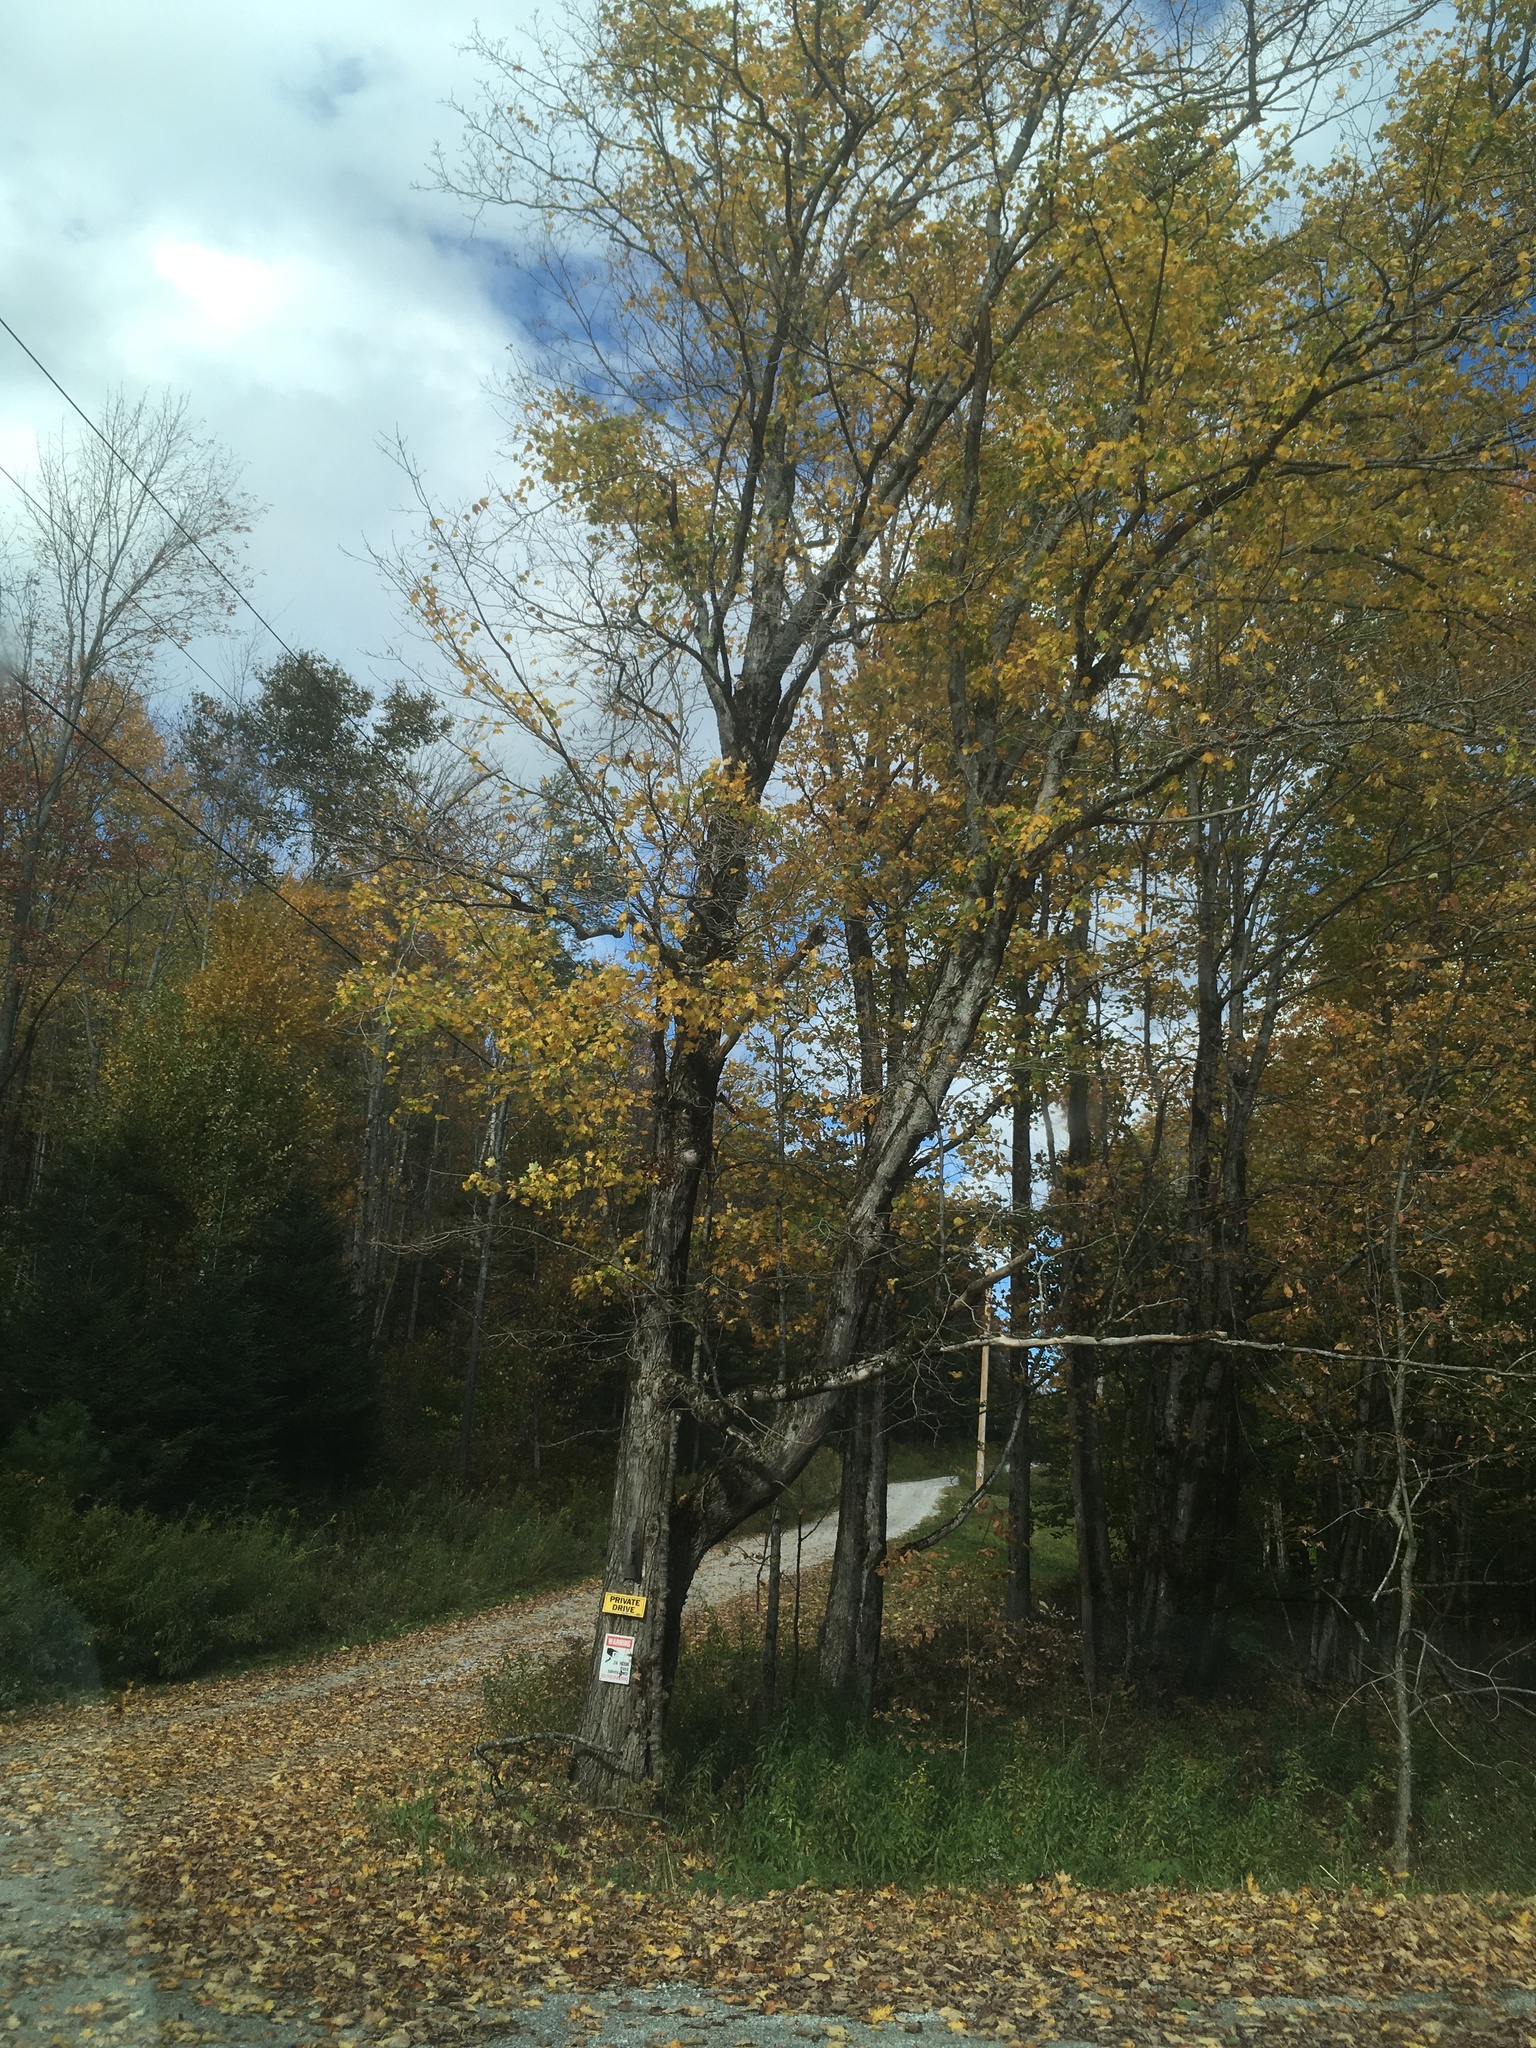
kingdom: Plantae
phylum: Tracheophyta
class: Magnoliopsida
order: Sapindales
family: Sapindaceae
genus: Acer
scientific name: Acer saccharum
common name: Sugar maple
